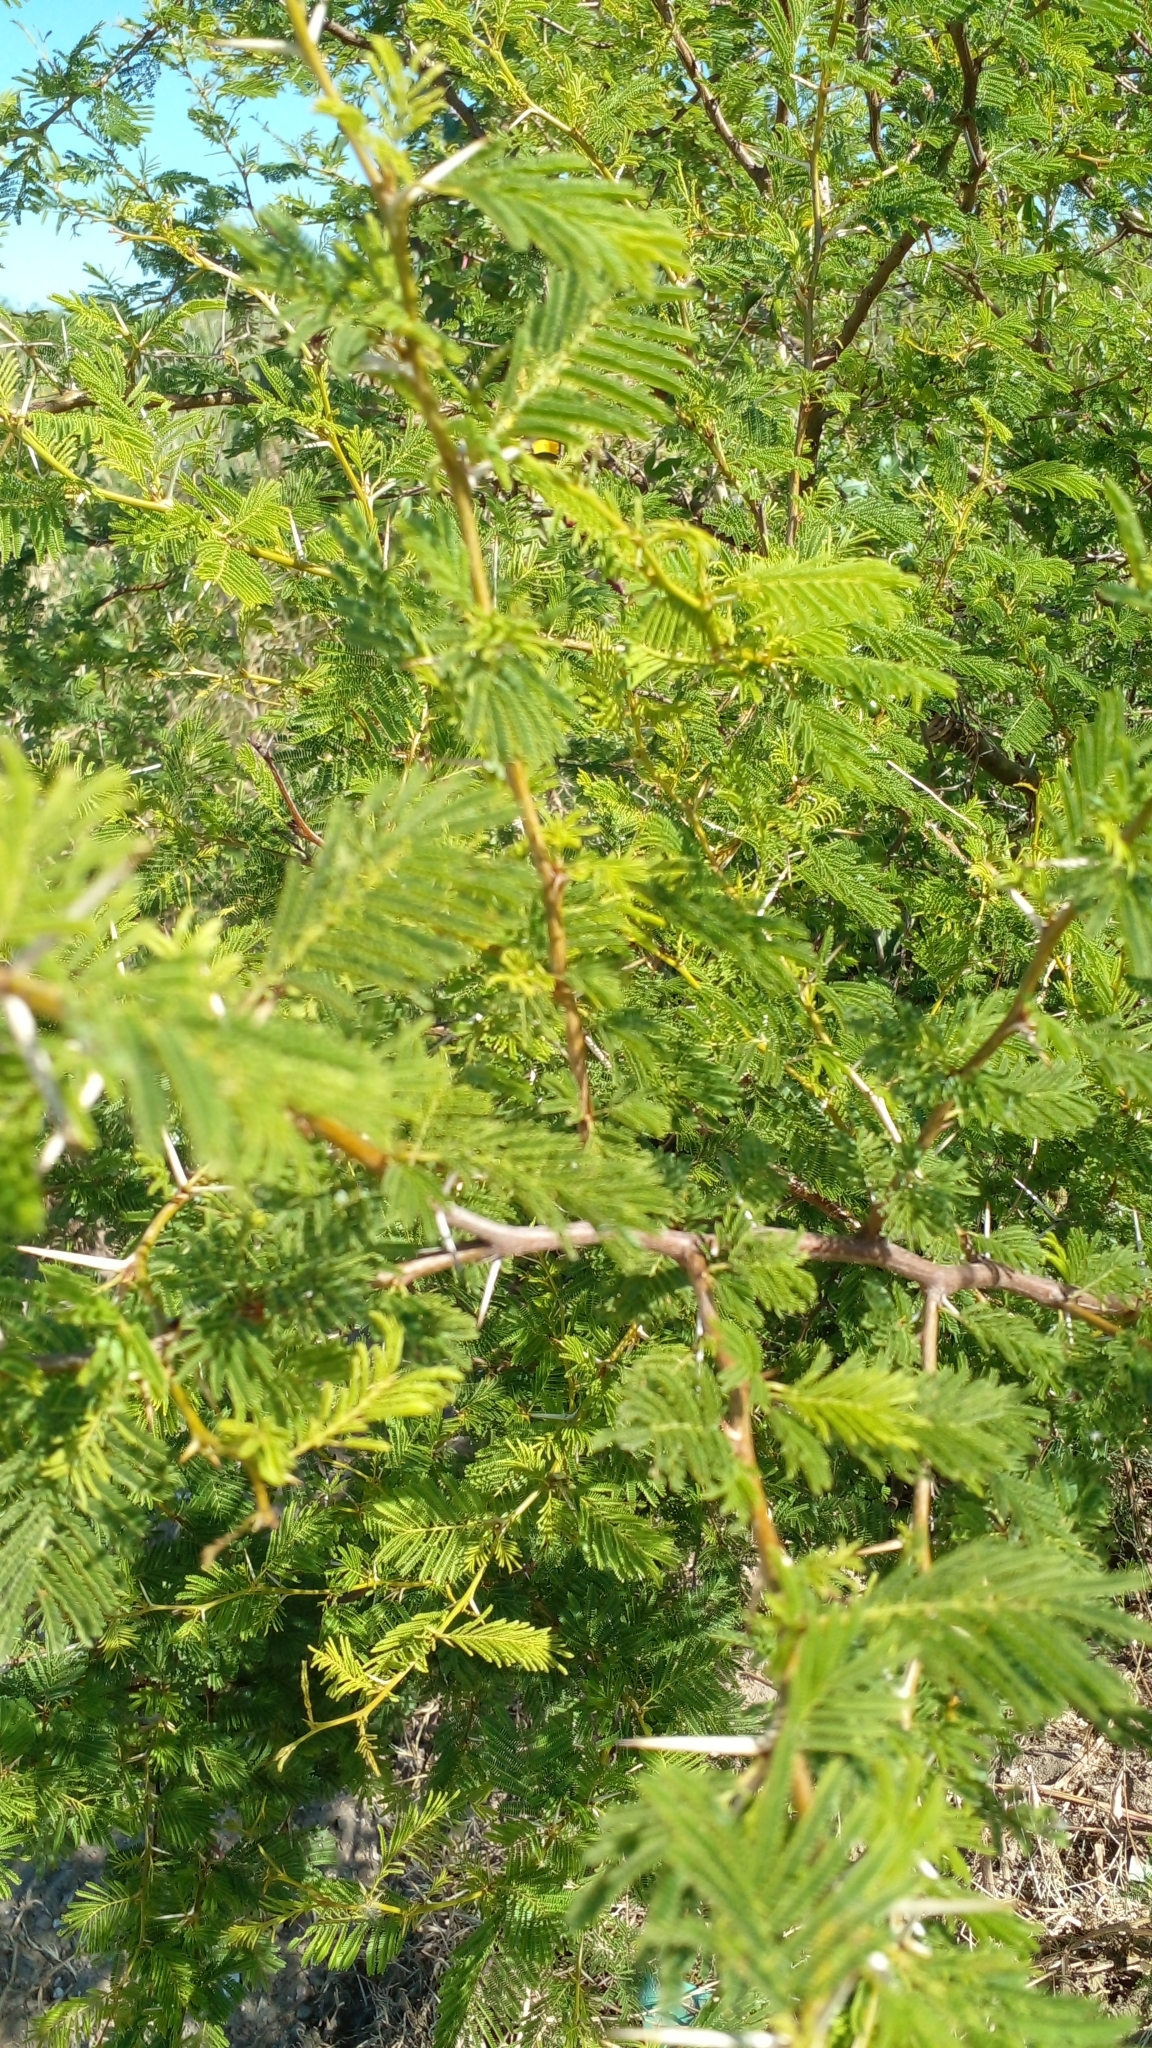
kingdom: Plantae
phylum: Tracheophyta
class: Magnoliopsida
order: Fabales
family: Fabaceae
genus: Vachellia
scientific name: Vachellia caven
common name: Roman cassie
